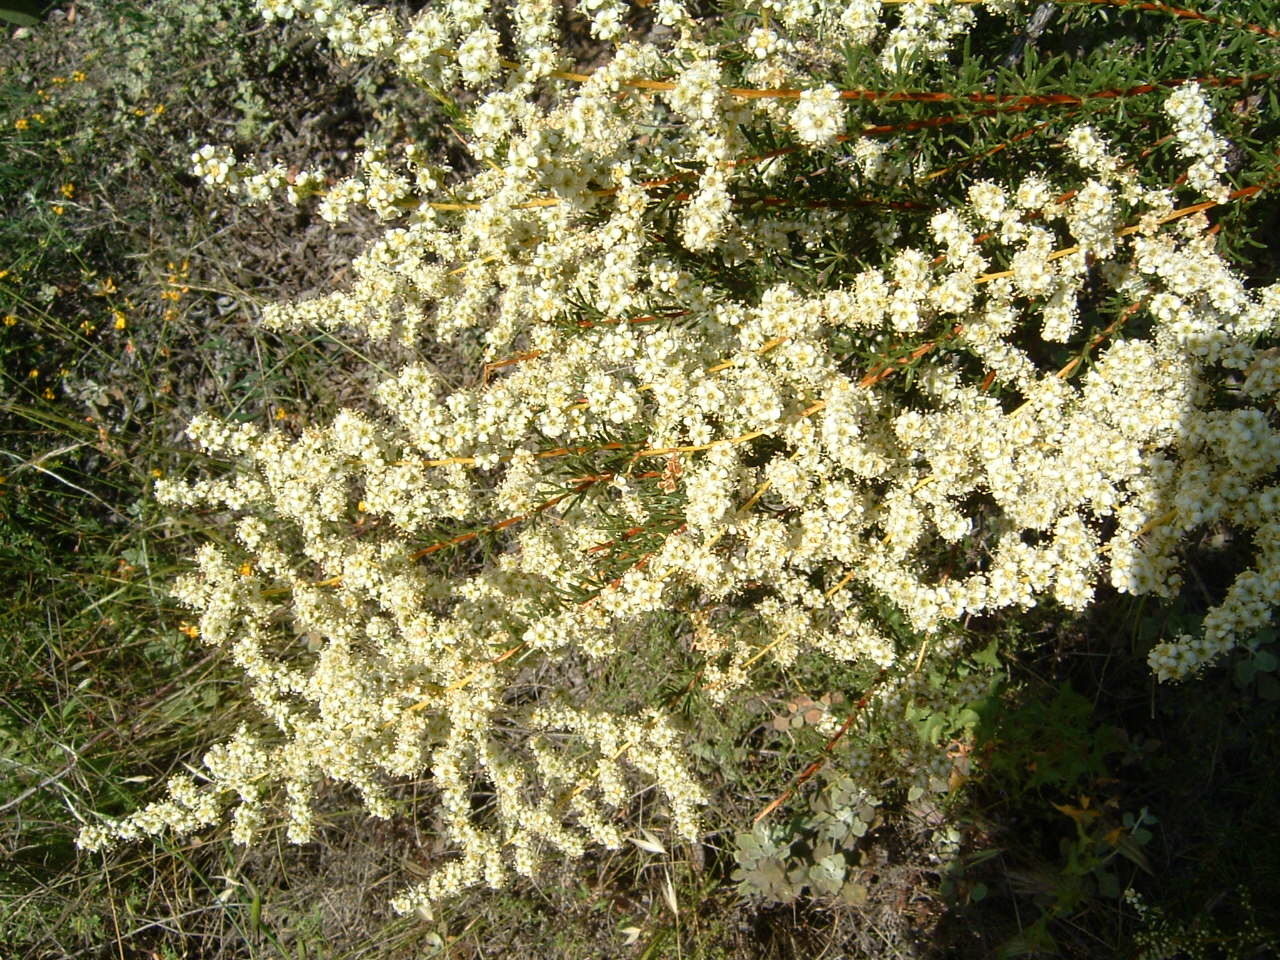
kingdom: Plantae
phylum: Tracheophyta
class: Magnoliopsida
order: Rosales
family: Rosaceae
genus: Adenostoma
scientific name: Adenostoma fasciculatum
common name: Chamise
